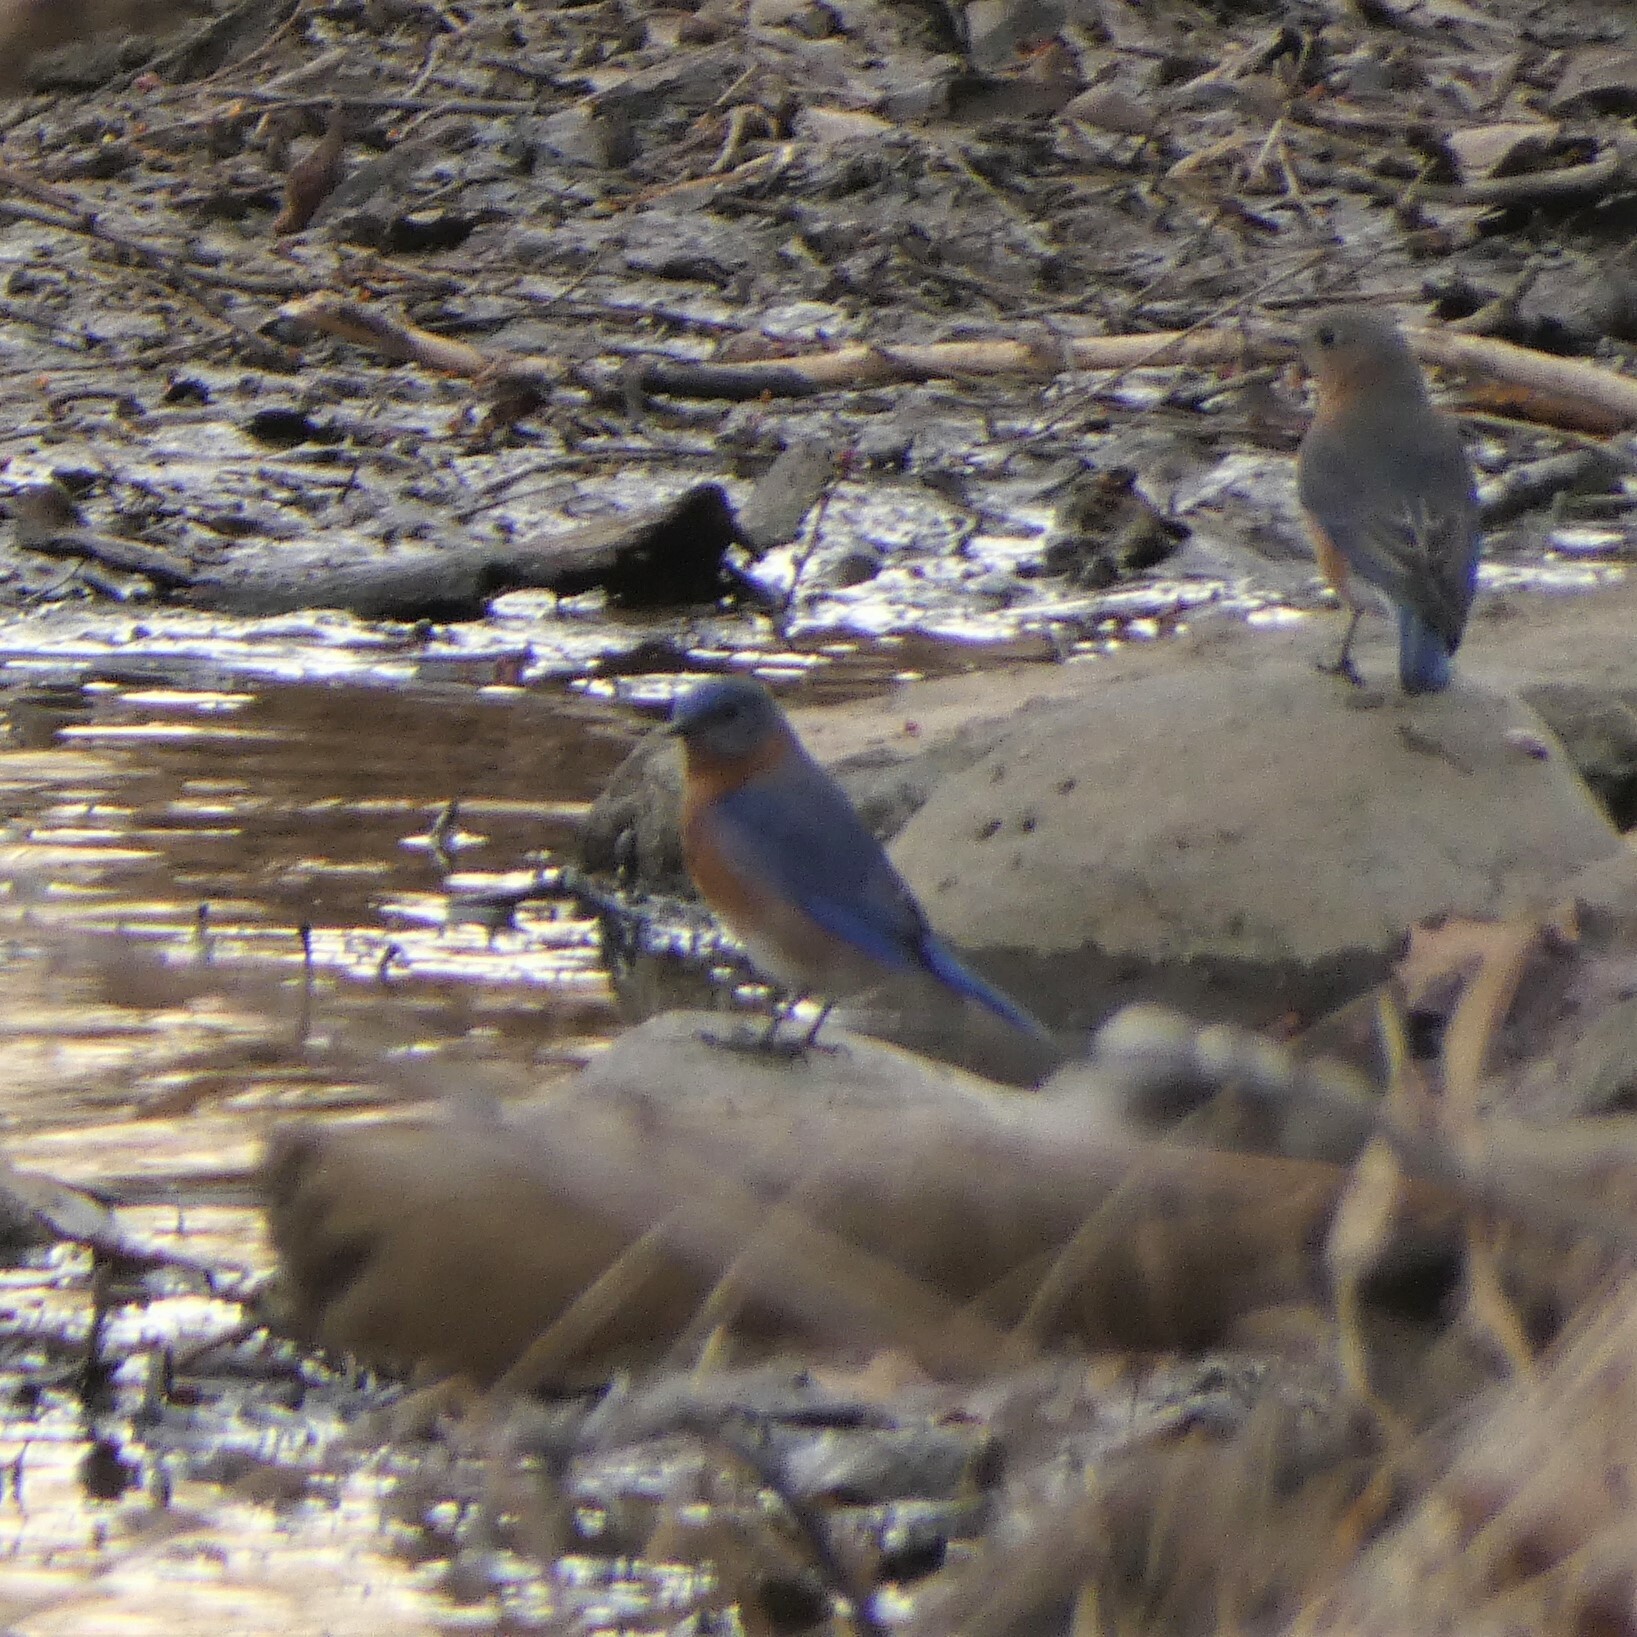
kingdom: Animalia
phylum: Chordata
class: Aves
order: Passeriformes
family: Turdidae
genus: Sialia
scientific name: Sialia sialis
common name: Eastern bluebird
